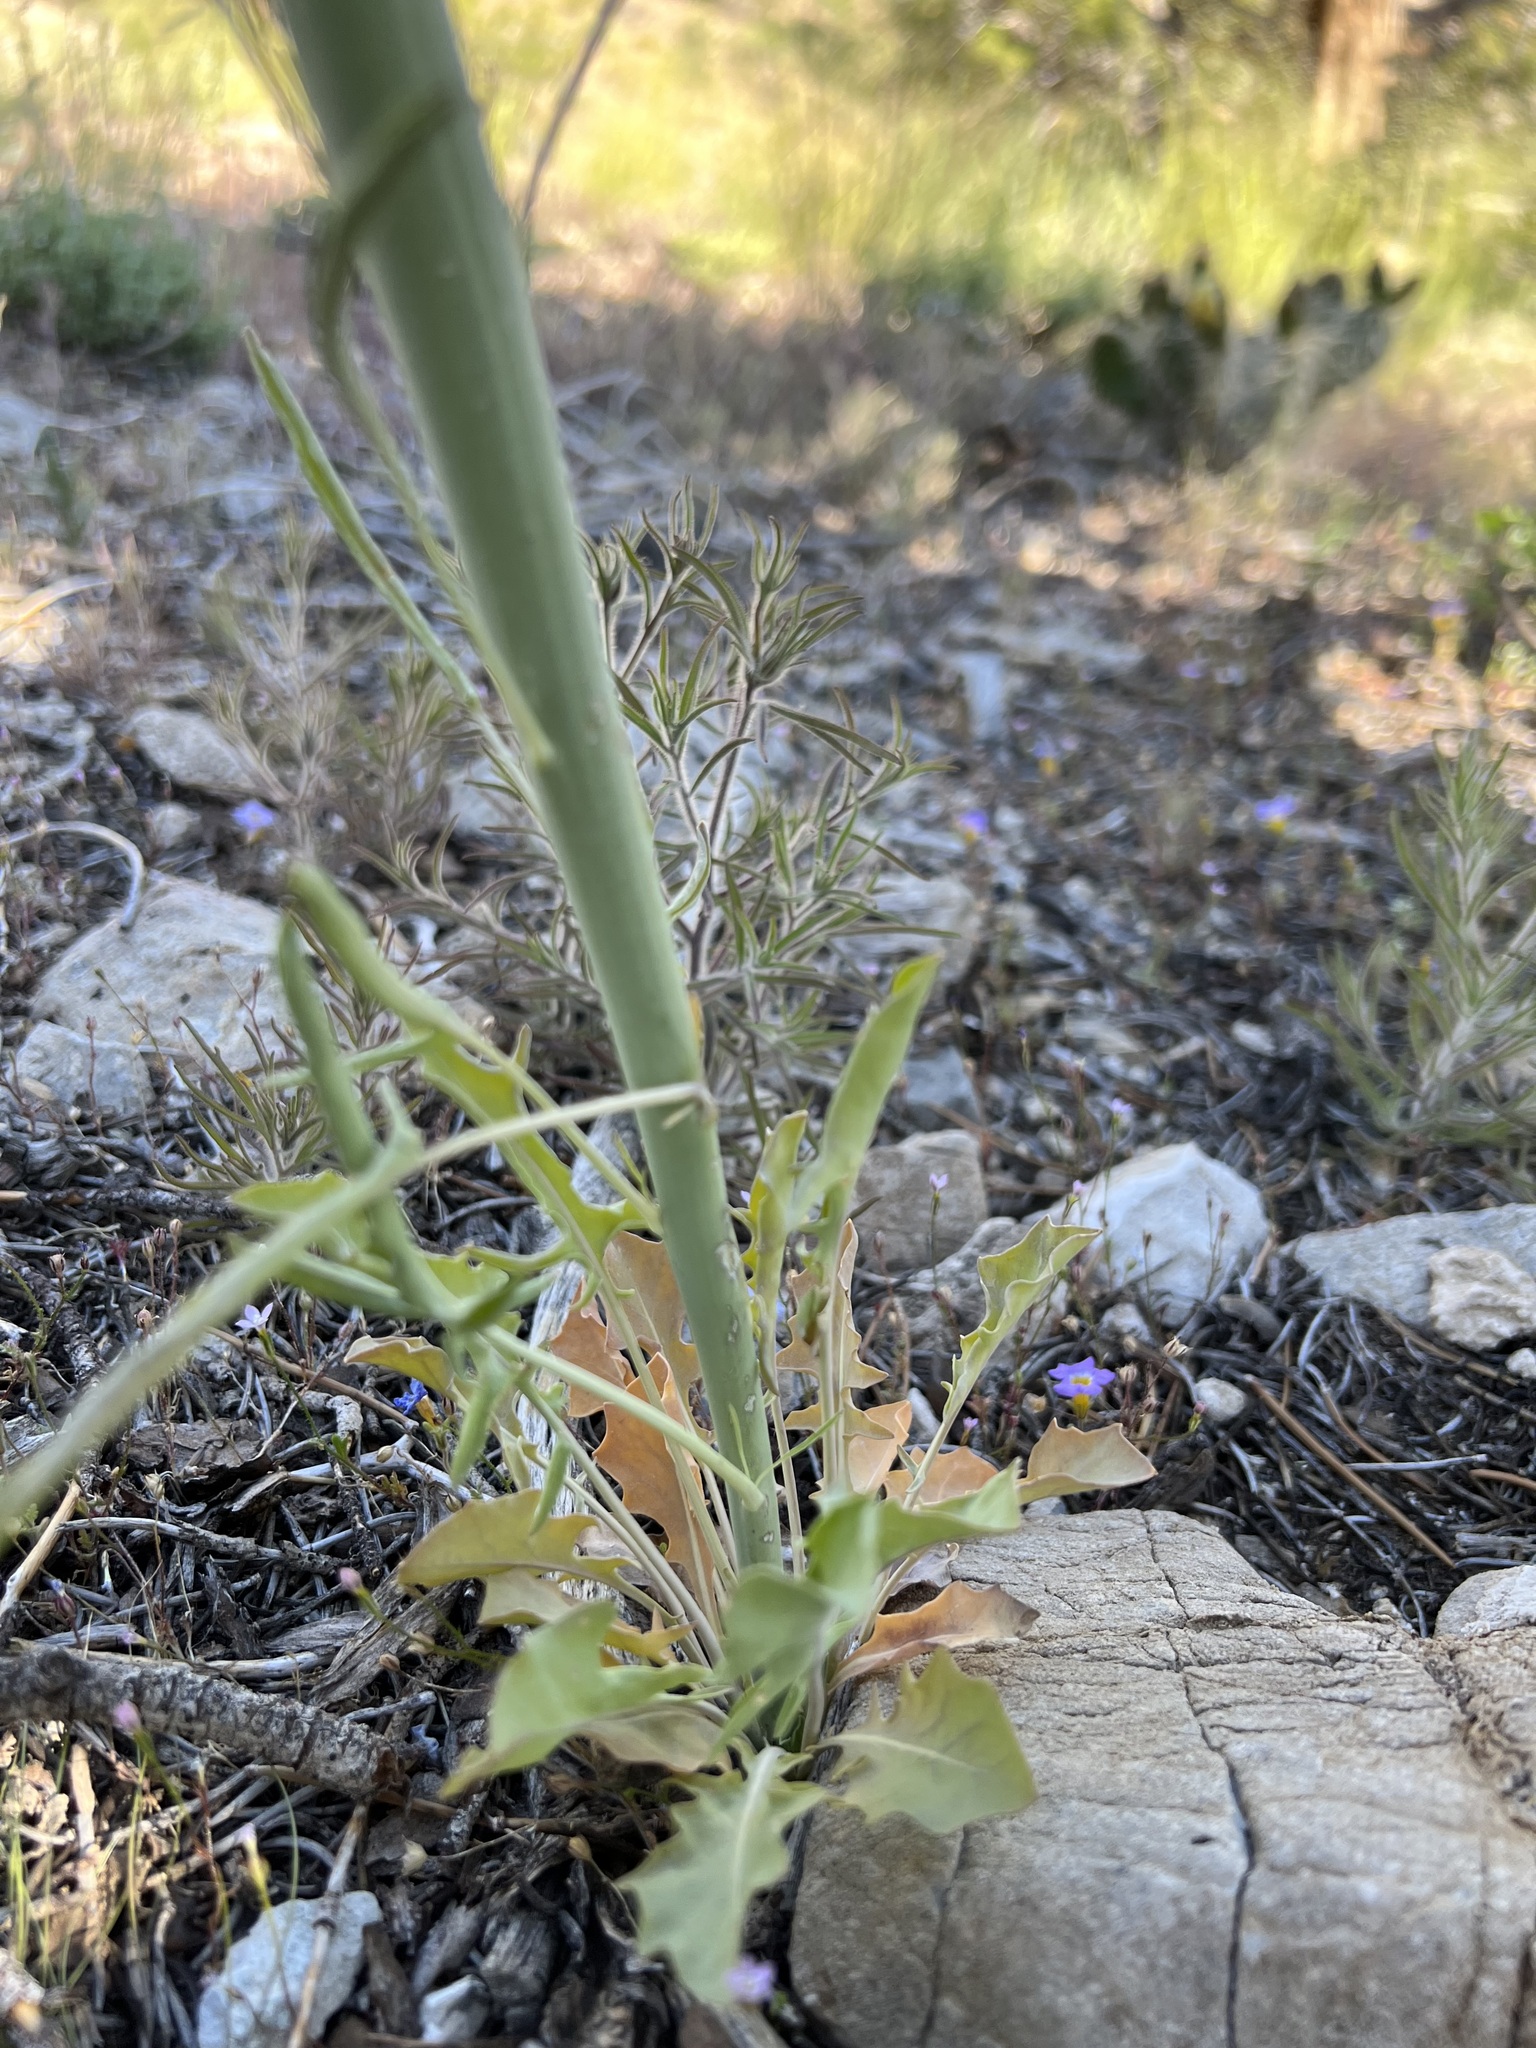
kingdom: Plantae
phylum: Tracheophyta
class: Magnoliopsida
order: Brassicales
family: Brassicaceae
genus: Streptanthus
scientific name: Streptanthus crassicaulis
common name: Thick-stem wild cabbage
